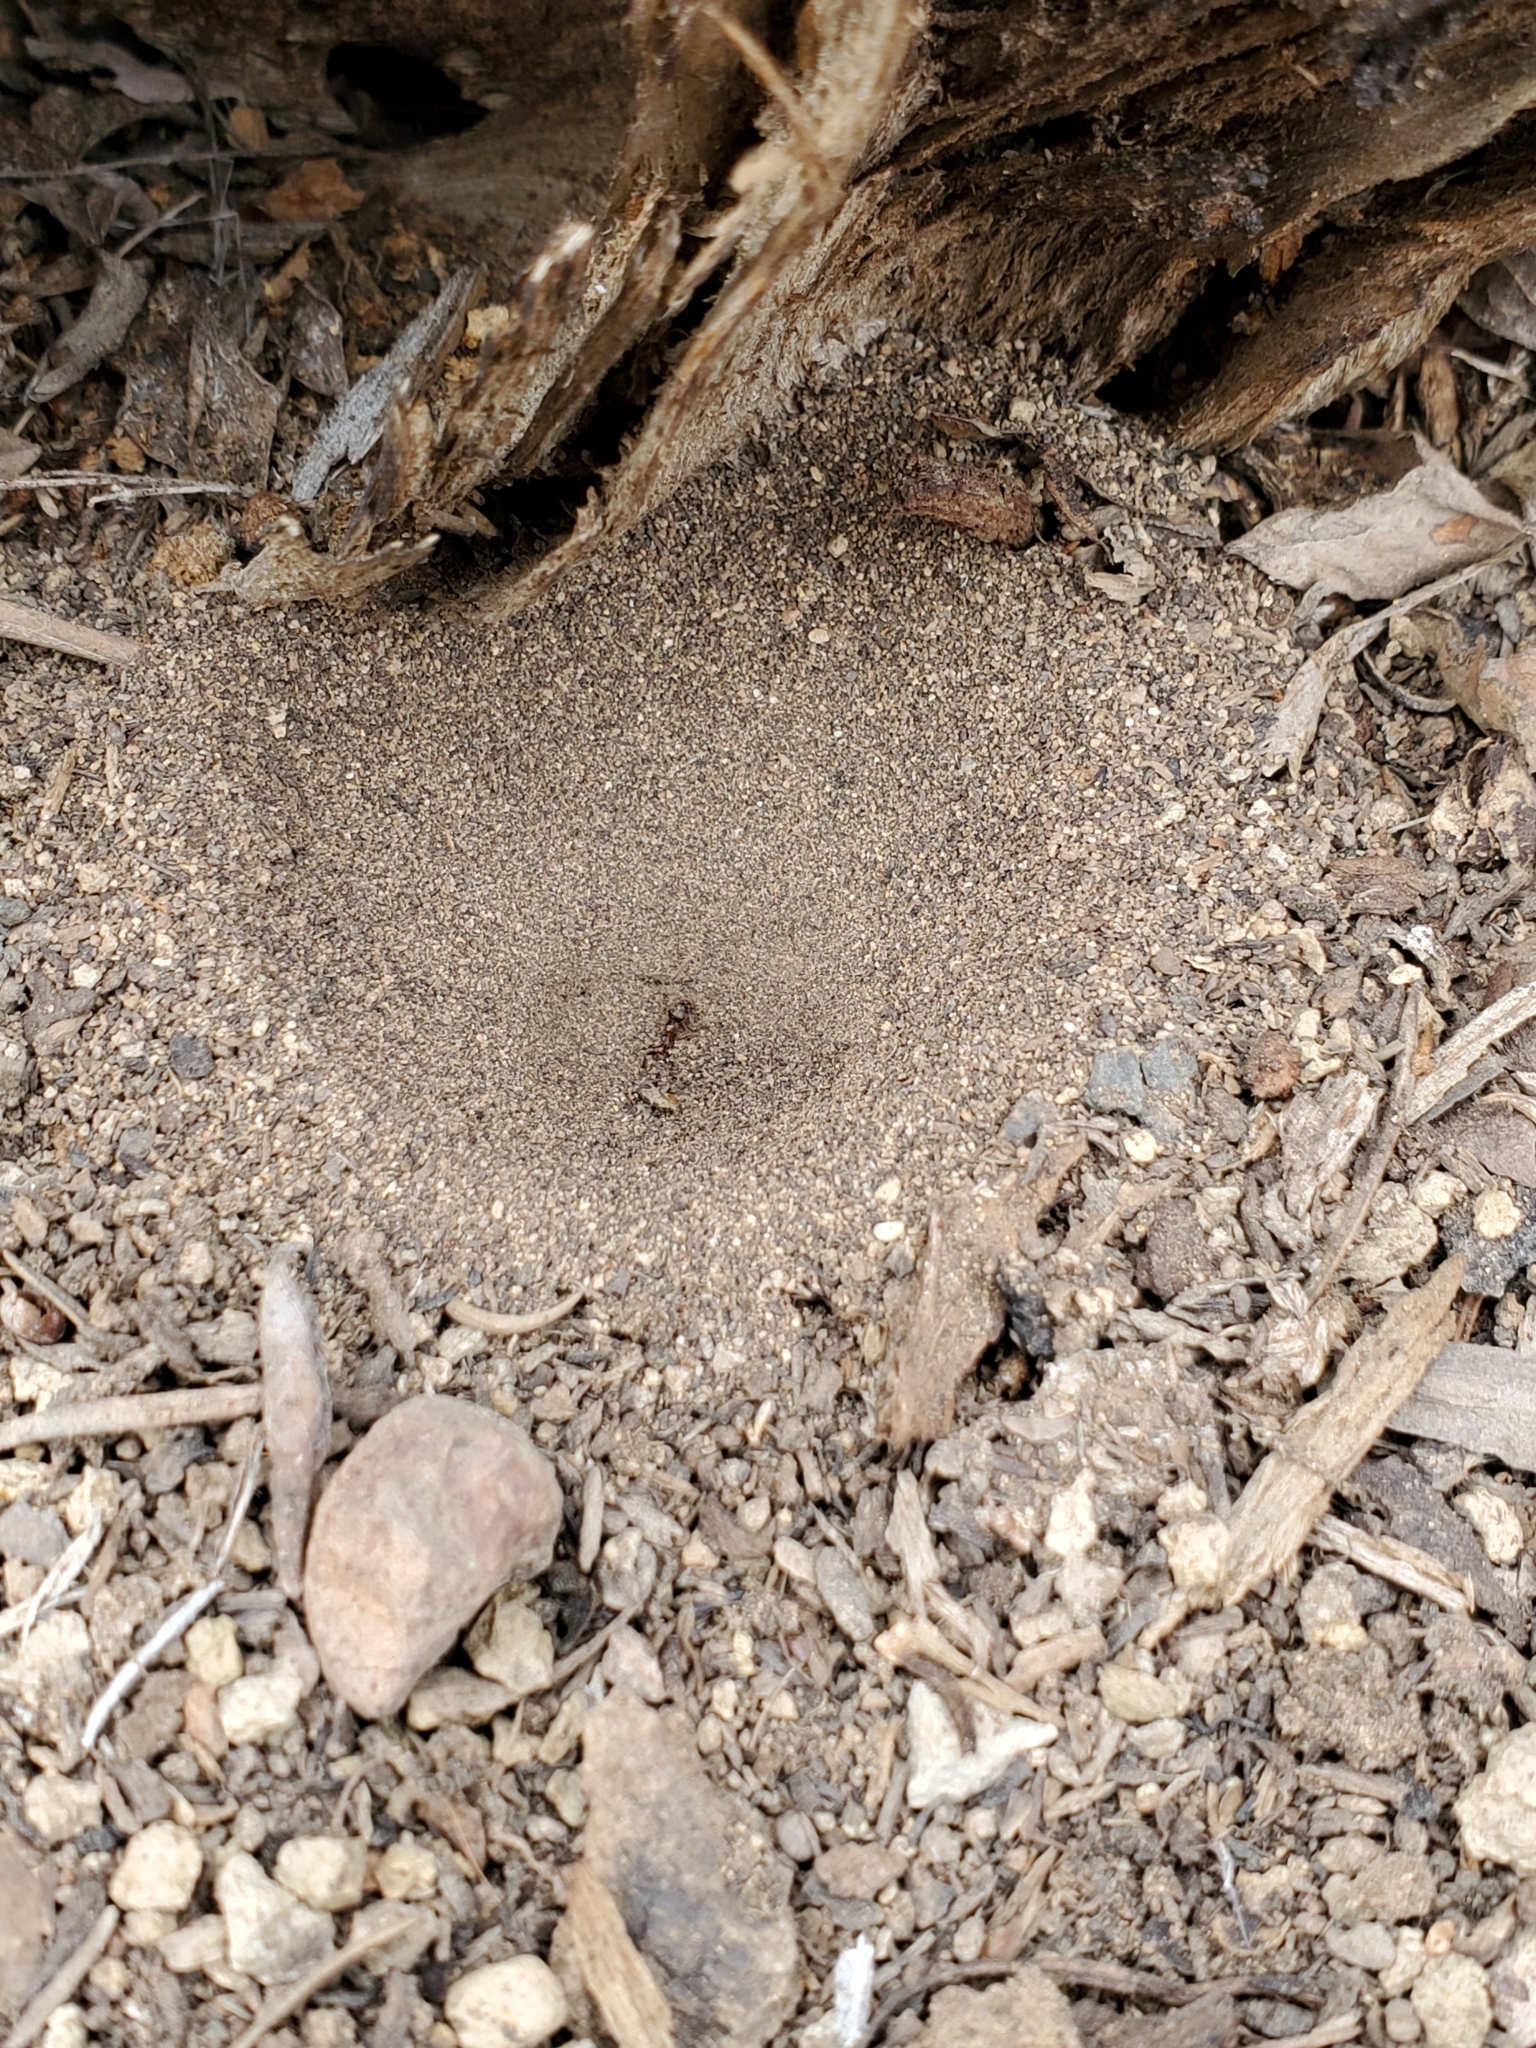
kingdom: Animalia
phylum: Arthropoda
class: Insecta
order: Neuroptera
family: Myrmeleontidae
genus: Myrmeleon
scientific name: Myrmeleon exitialis
